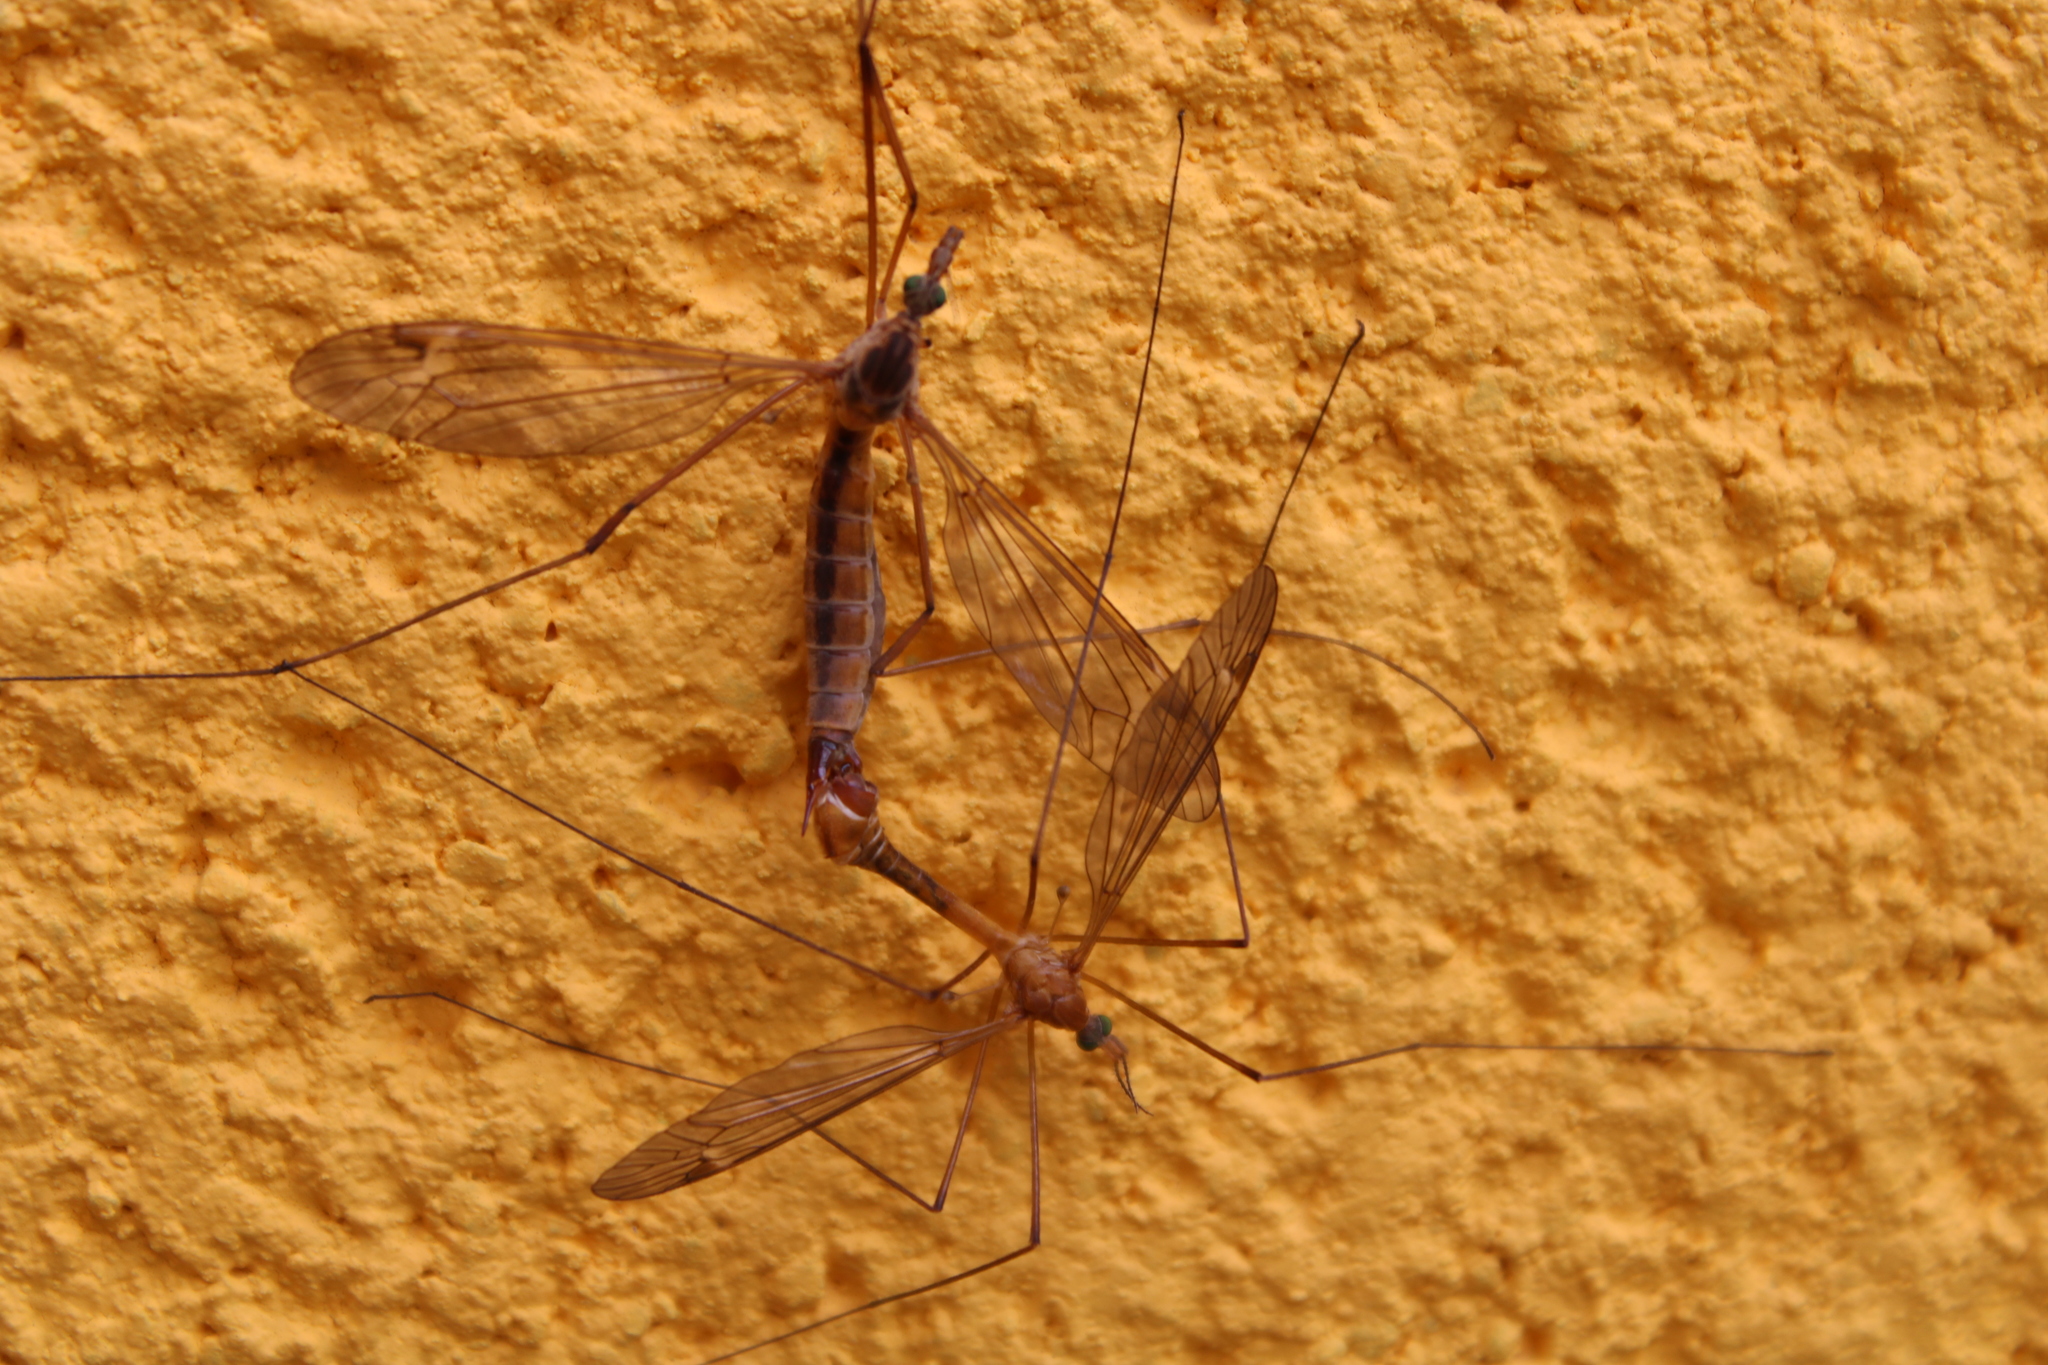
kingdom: Animalia
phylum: Arthropoda
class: Insecta
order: Diptera
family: Tipulidae
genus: Tipula
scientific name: Tipula bezzii
